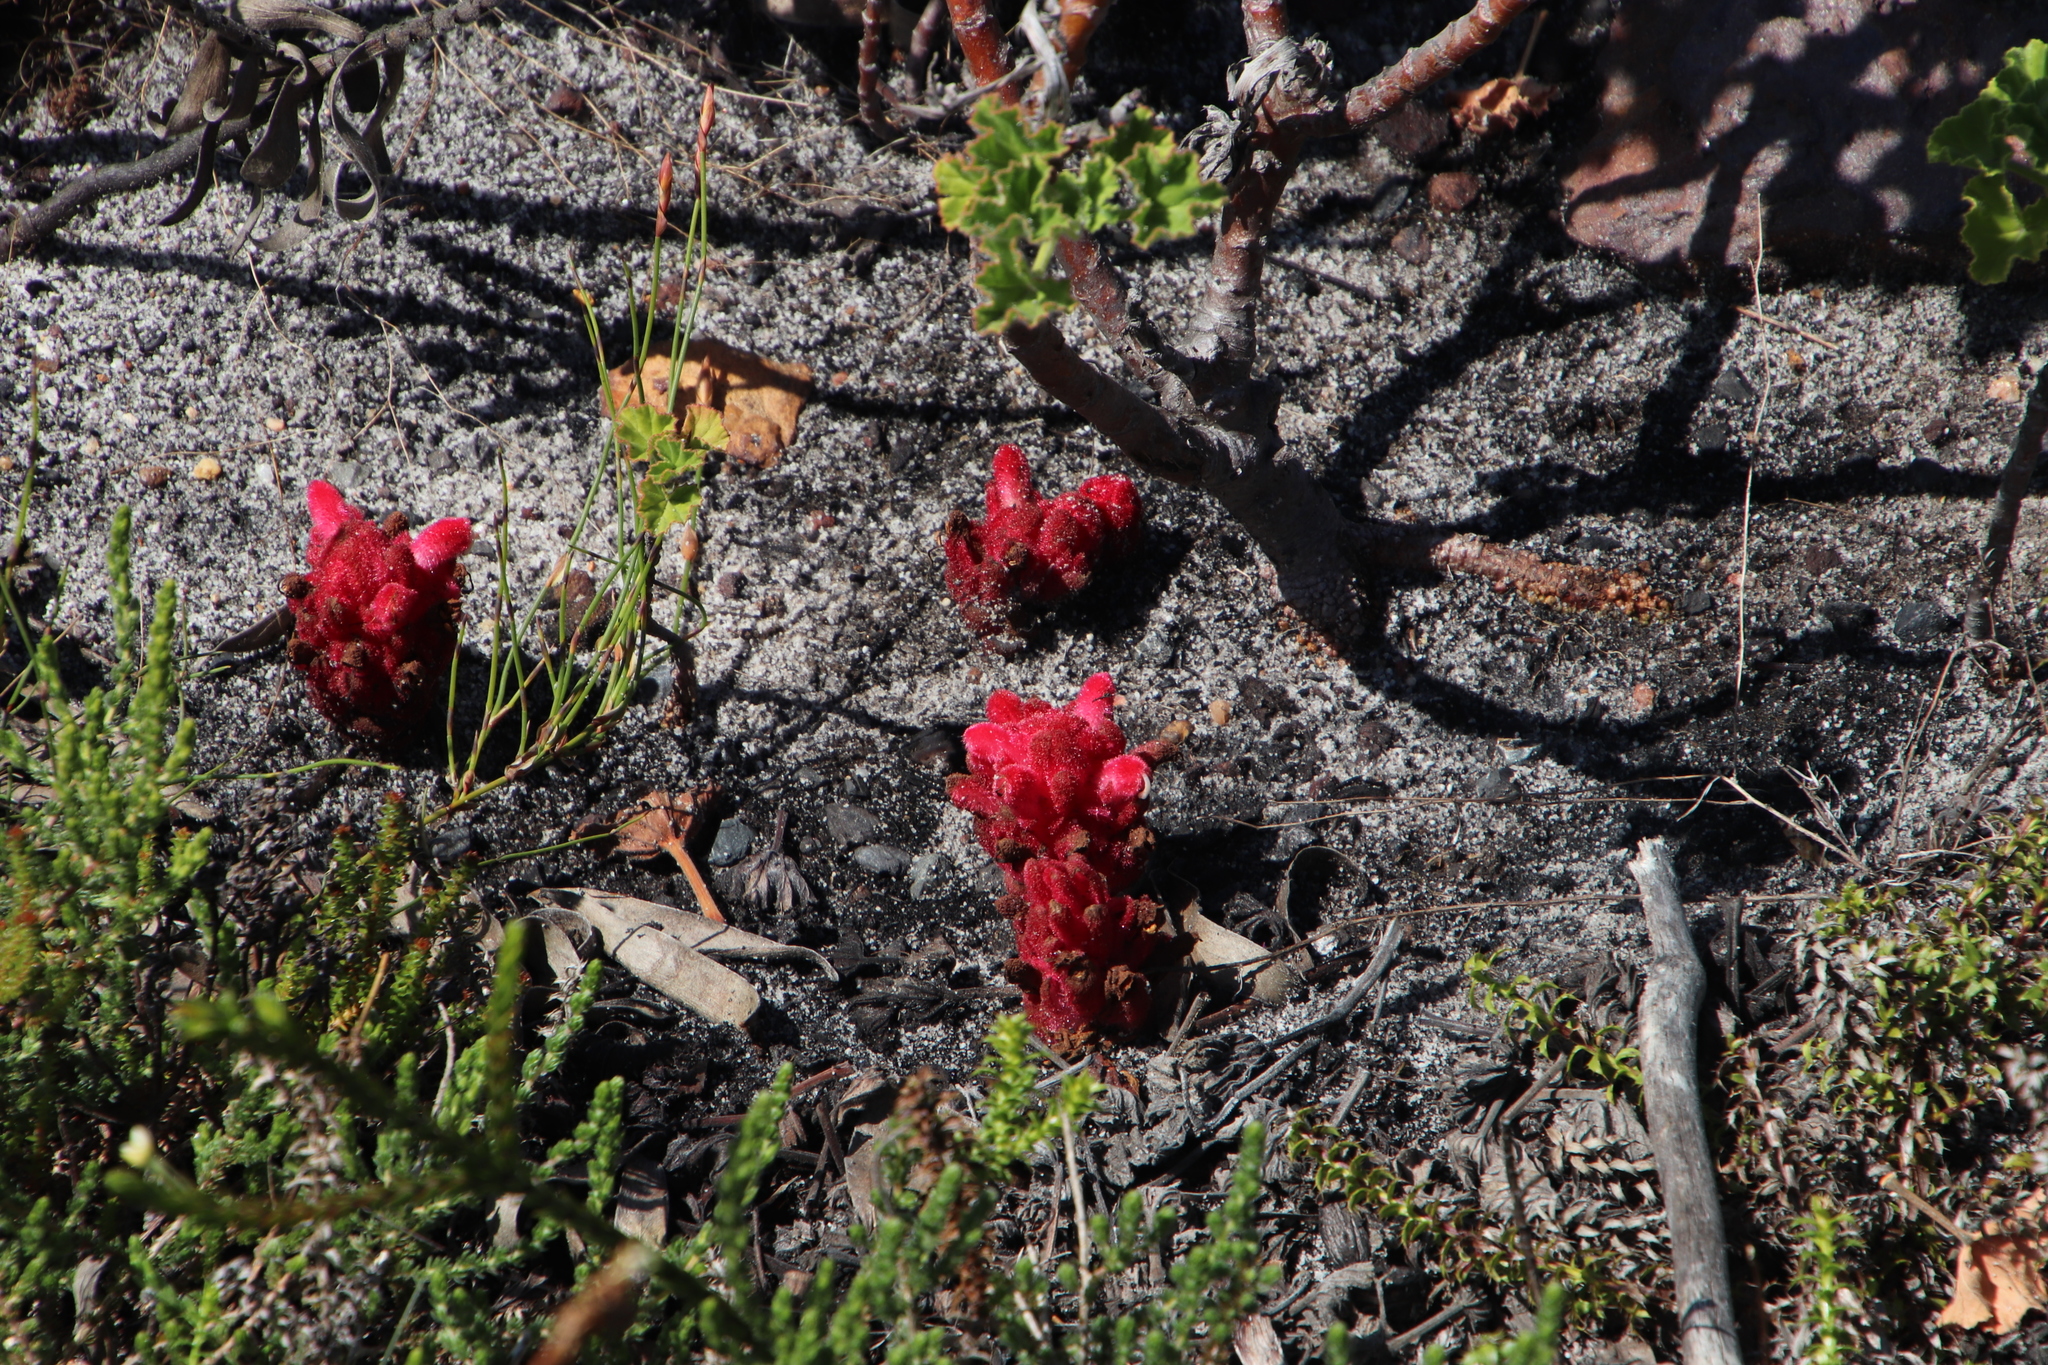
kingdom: Plantae
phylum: Tracheophyta
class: Magnoliopsida
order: Lamiales
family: Orobanchaceae
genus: Hyobanche
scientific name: Hyobanche sanguinea
